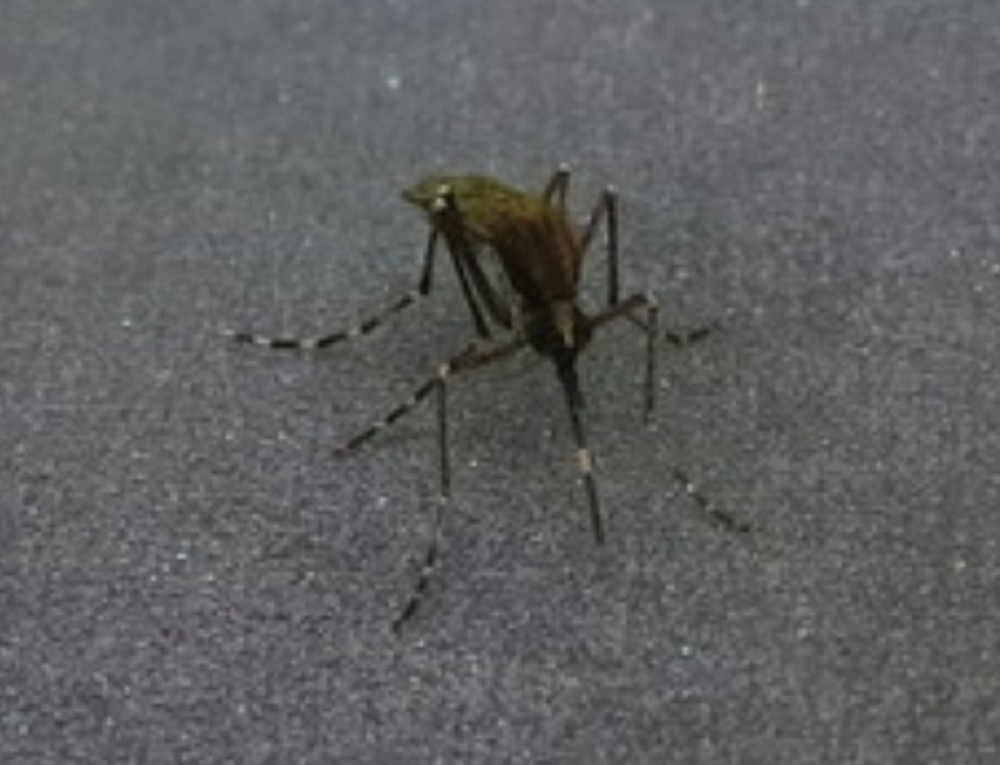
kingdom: Animalia
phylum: Arthropoda
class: Insecta
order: Diptera
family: Culicidae
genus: Aedes
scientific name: Aedes sollicitans
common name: Saltmarsh mosquito
